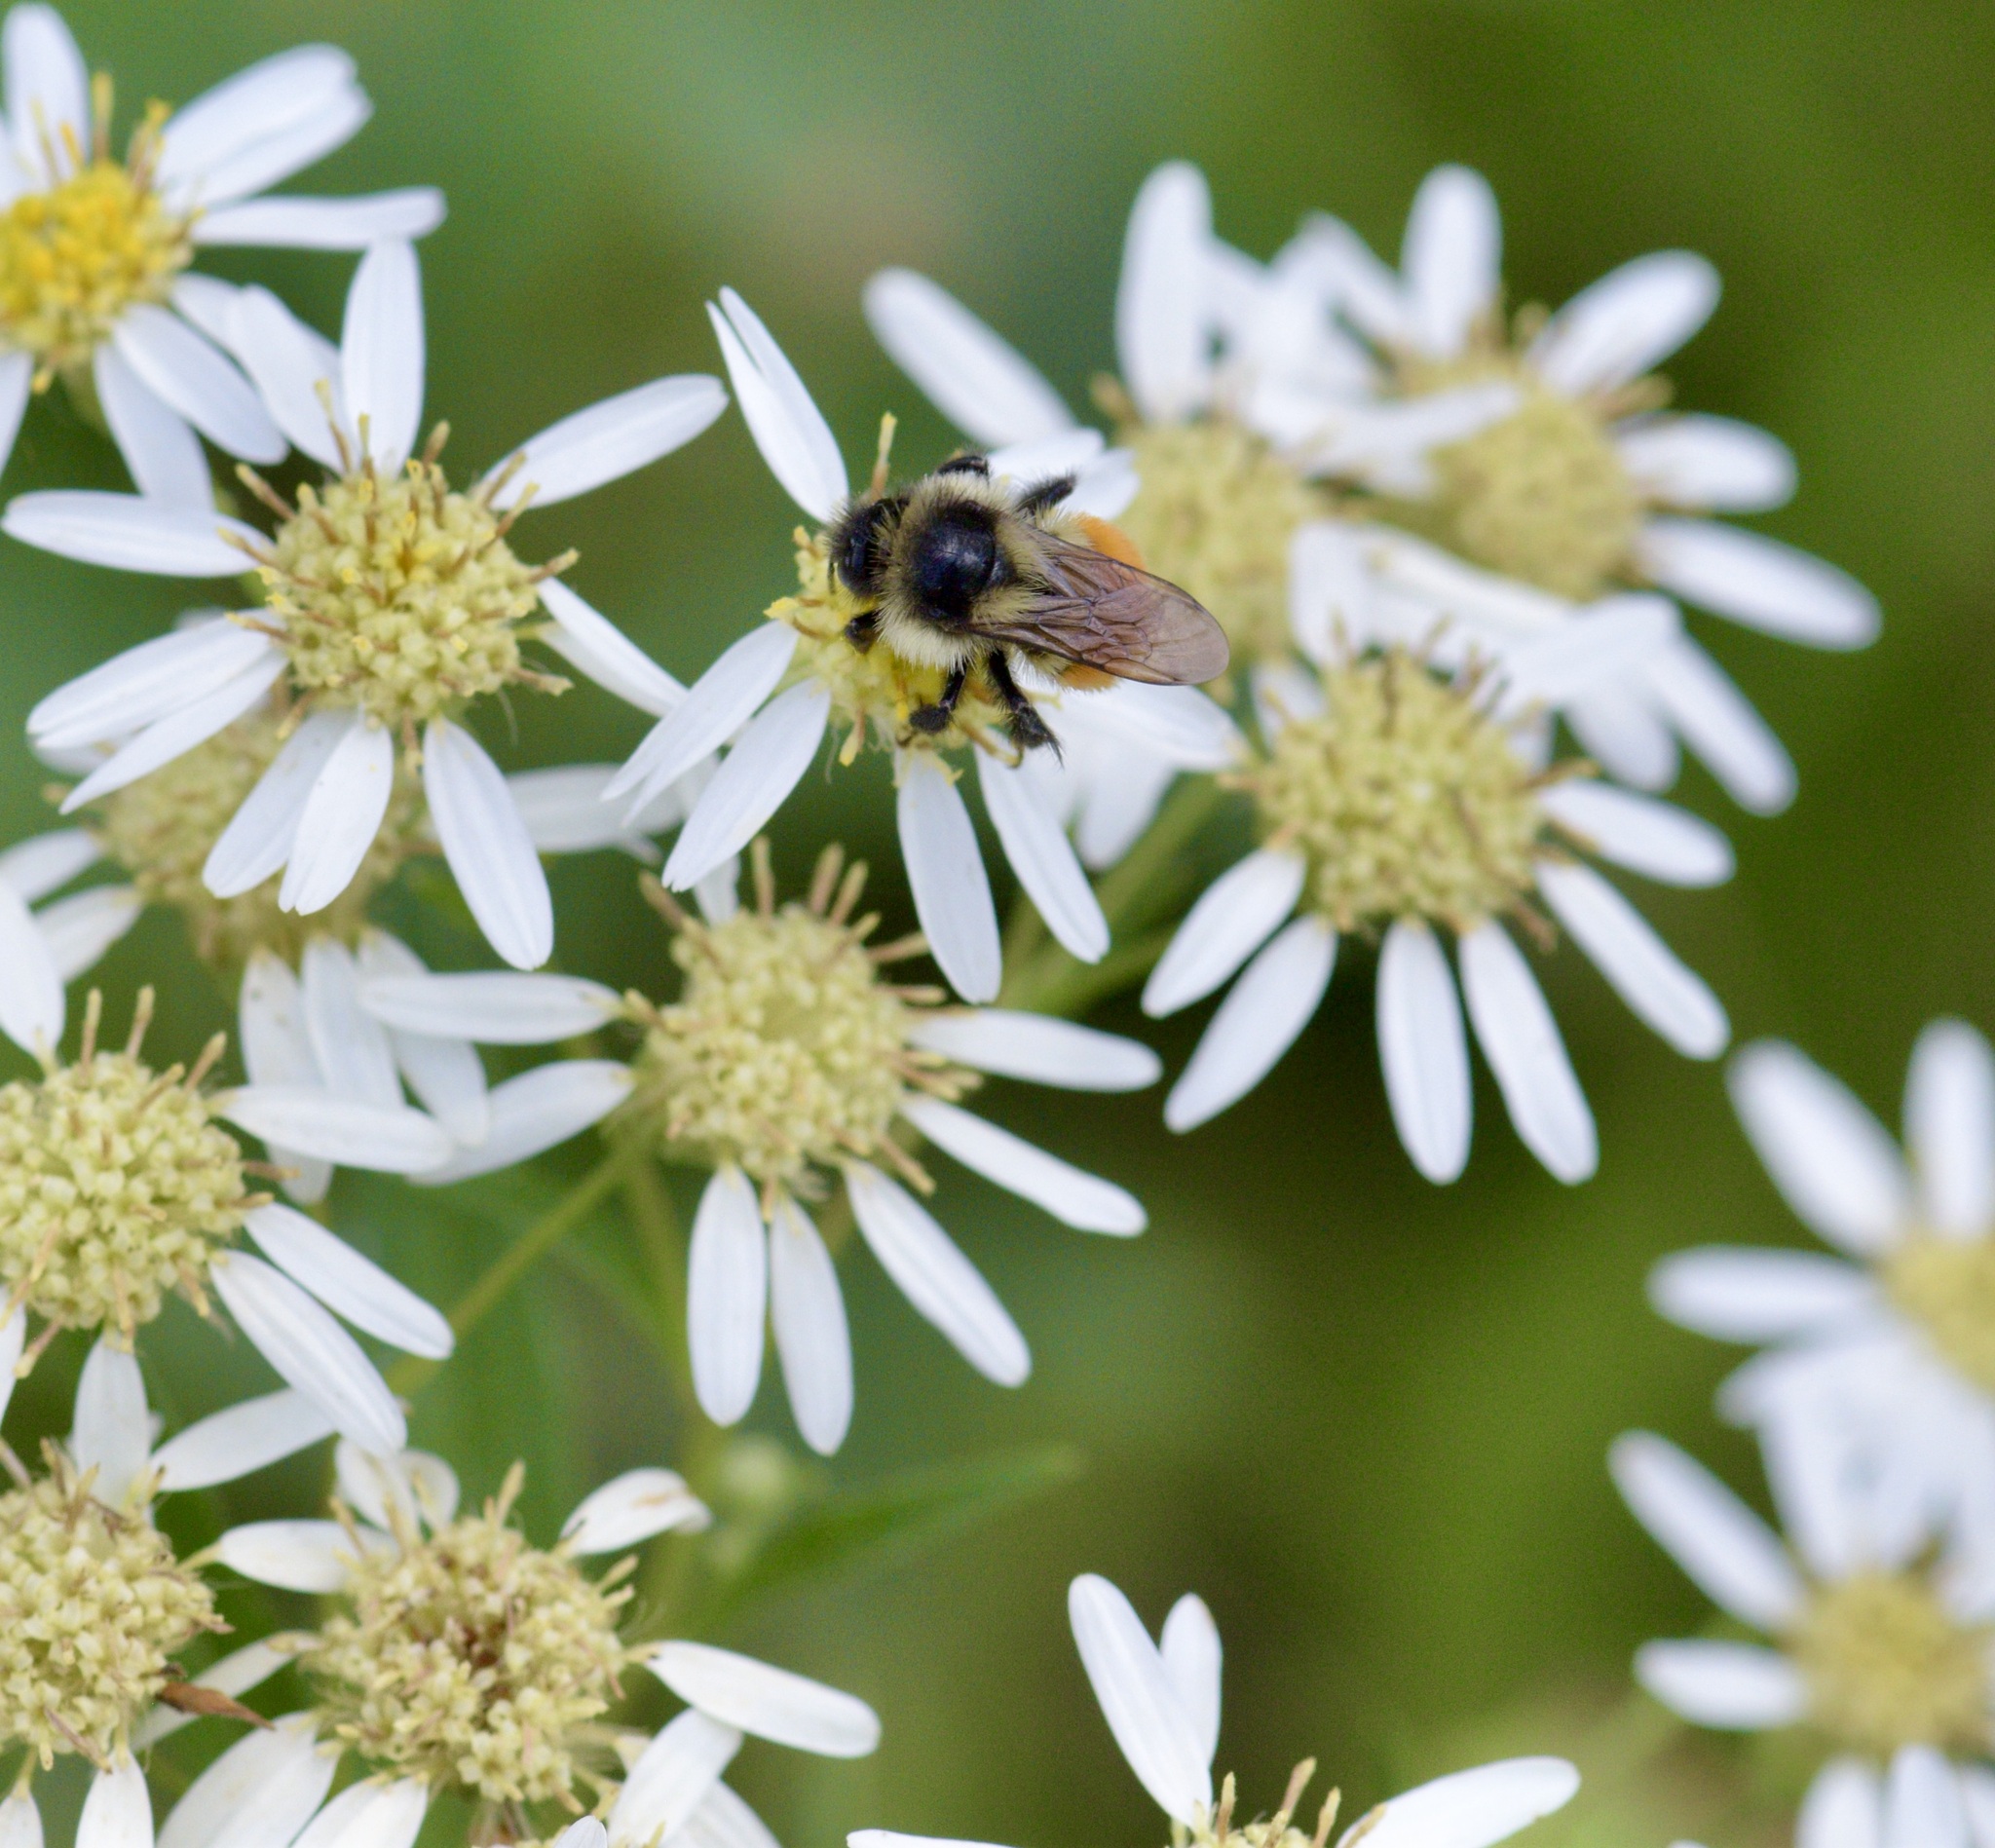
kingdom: Animalia
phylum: Arthropoda
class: Insecta
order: Hymenoptera
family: Apidae
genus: Bombus
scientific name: Bombus ternarius
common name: Tri-colored bumble bee
